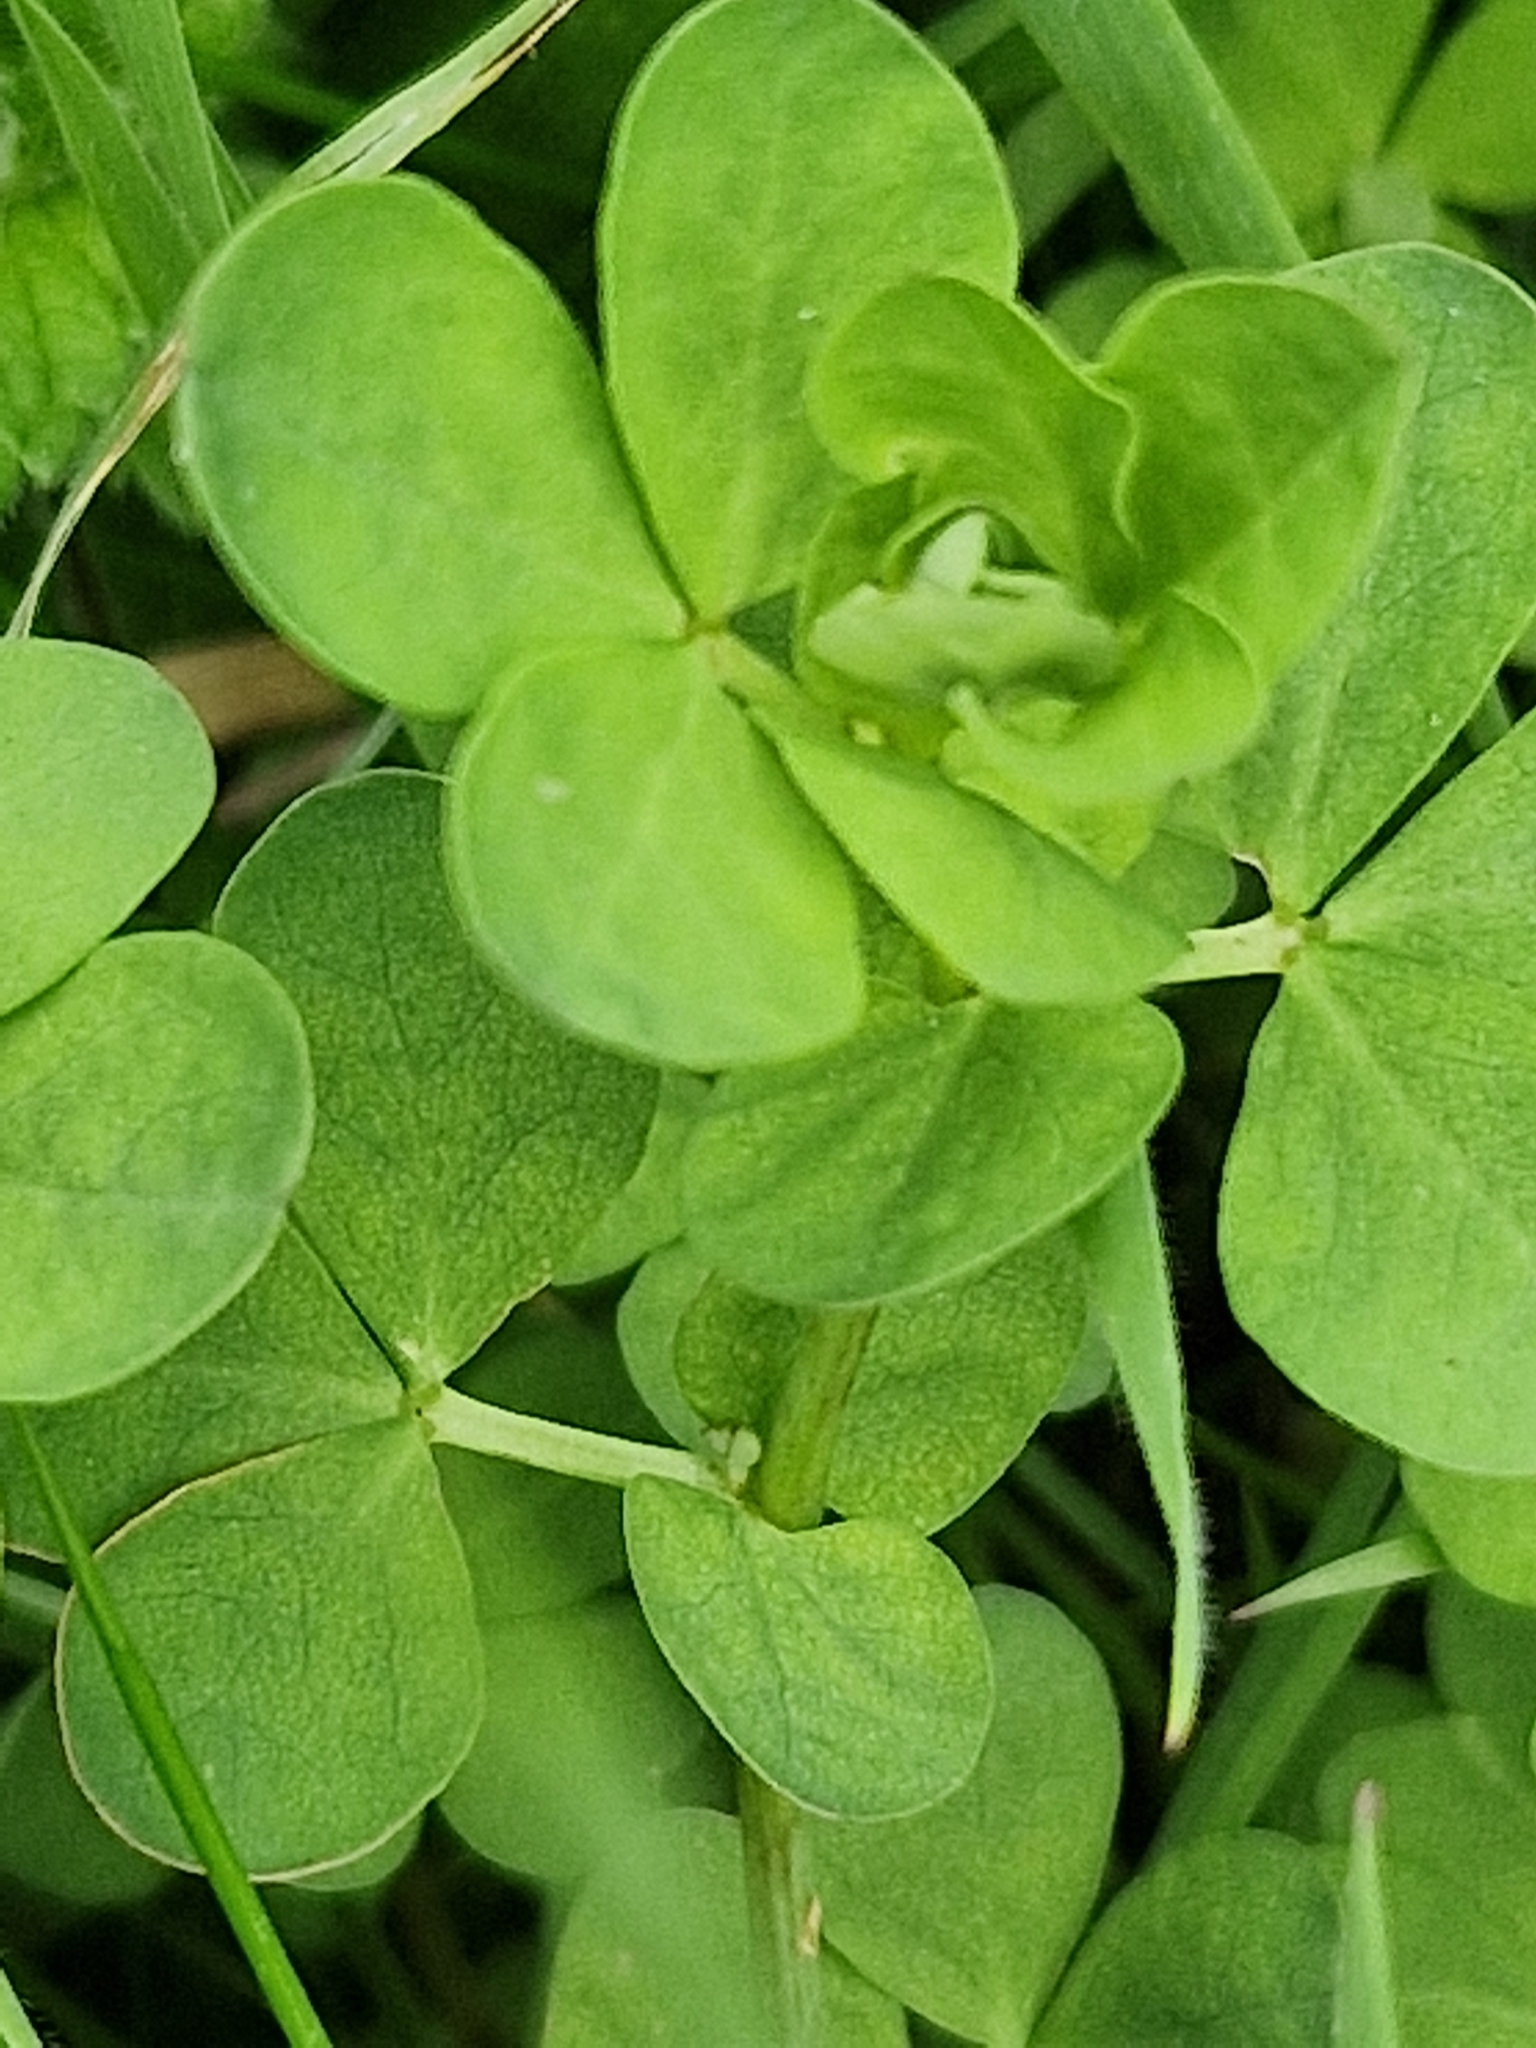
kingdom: Plantae
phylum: Tracheophyta
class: Magnoliopsida
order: Fabales
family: Fabaceae
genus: Lotus
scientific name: Lotus pedunculatus
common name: Greater birdsfoot-trefoil
